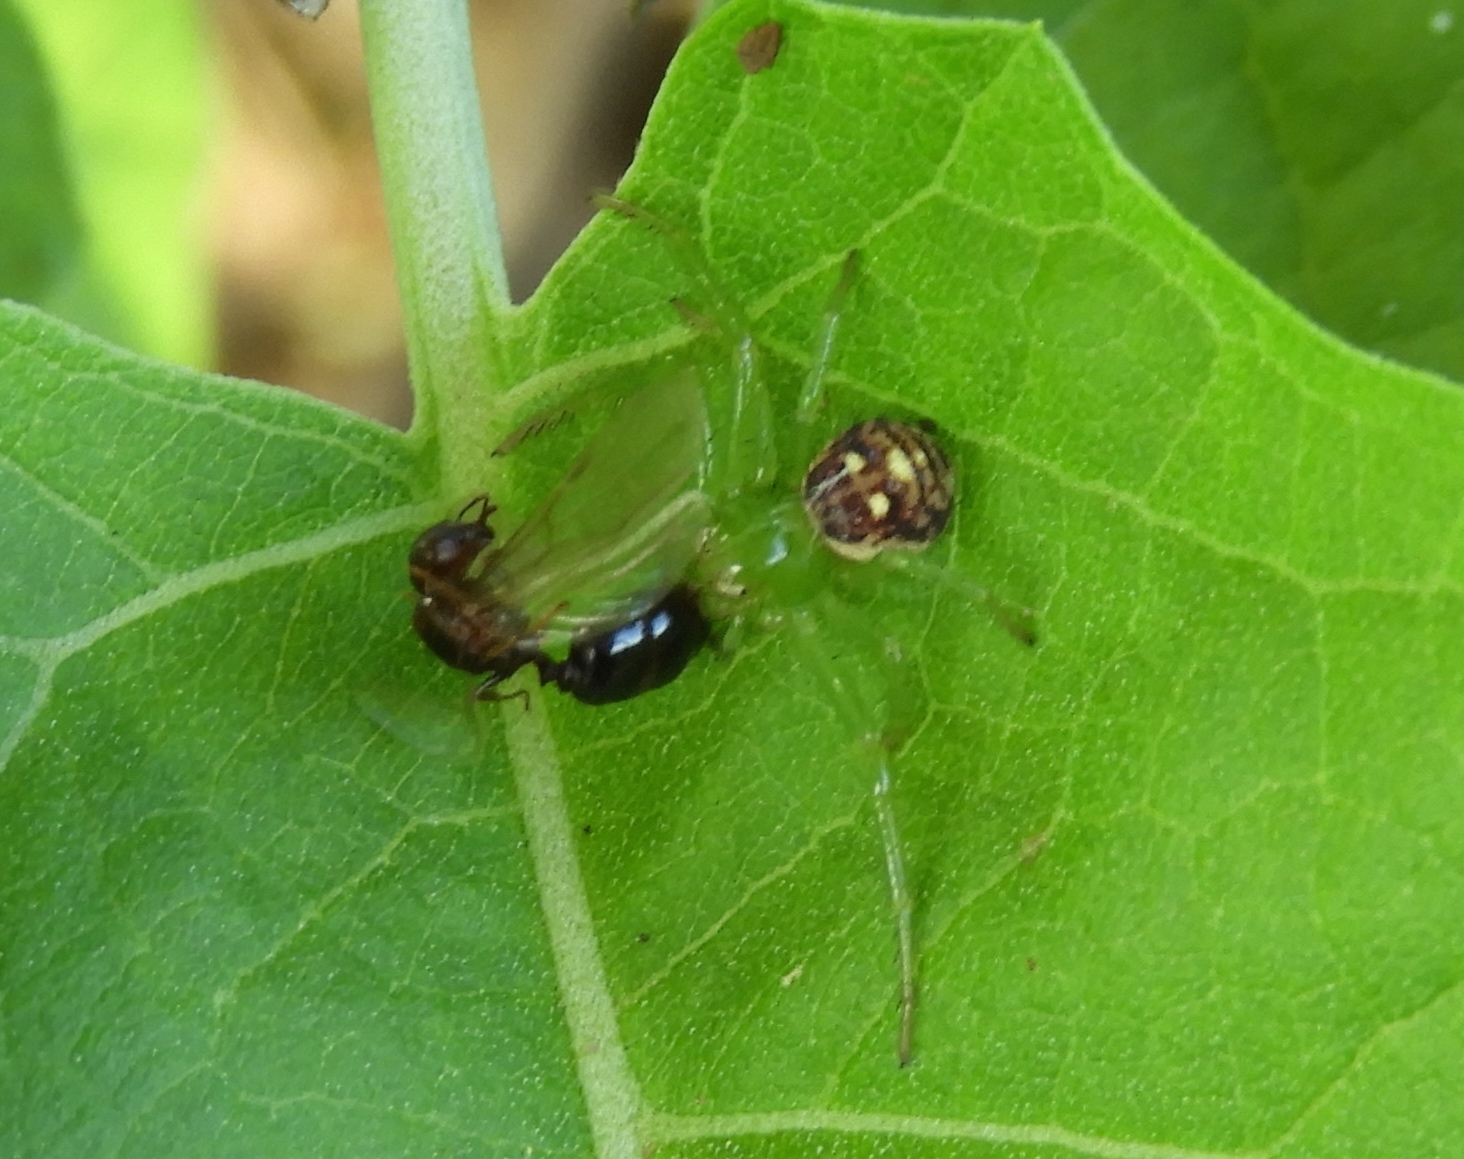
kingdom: Animalia
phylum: Arthropoda
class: Arachnida
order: Araneae
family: Thomisidae
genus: Diaea
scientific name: Diaea
